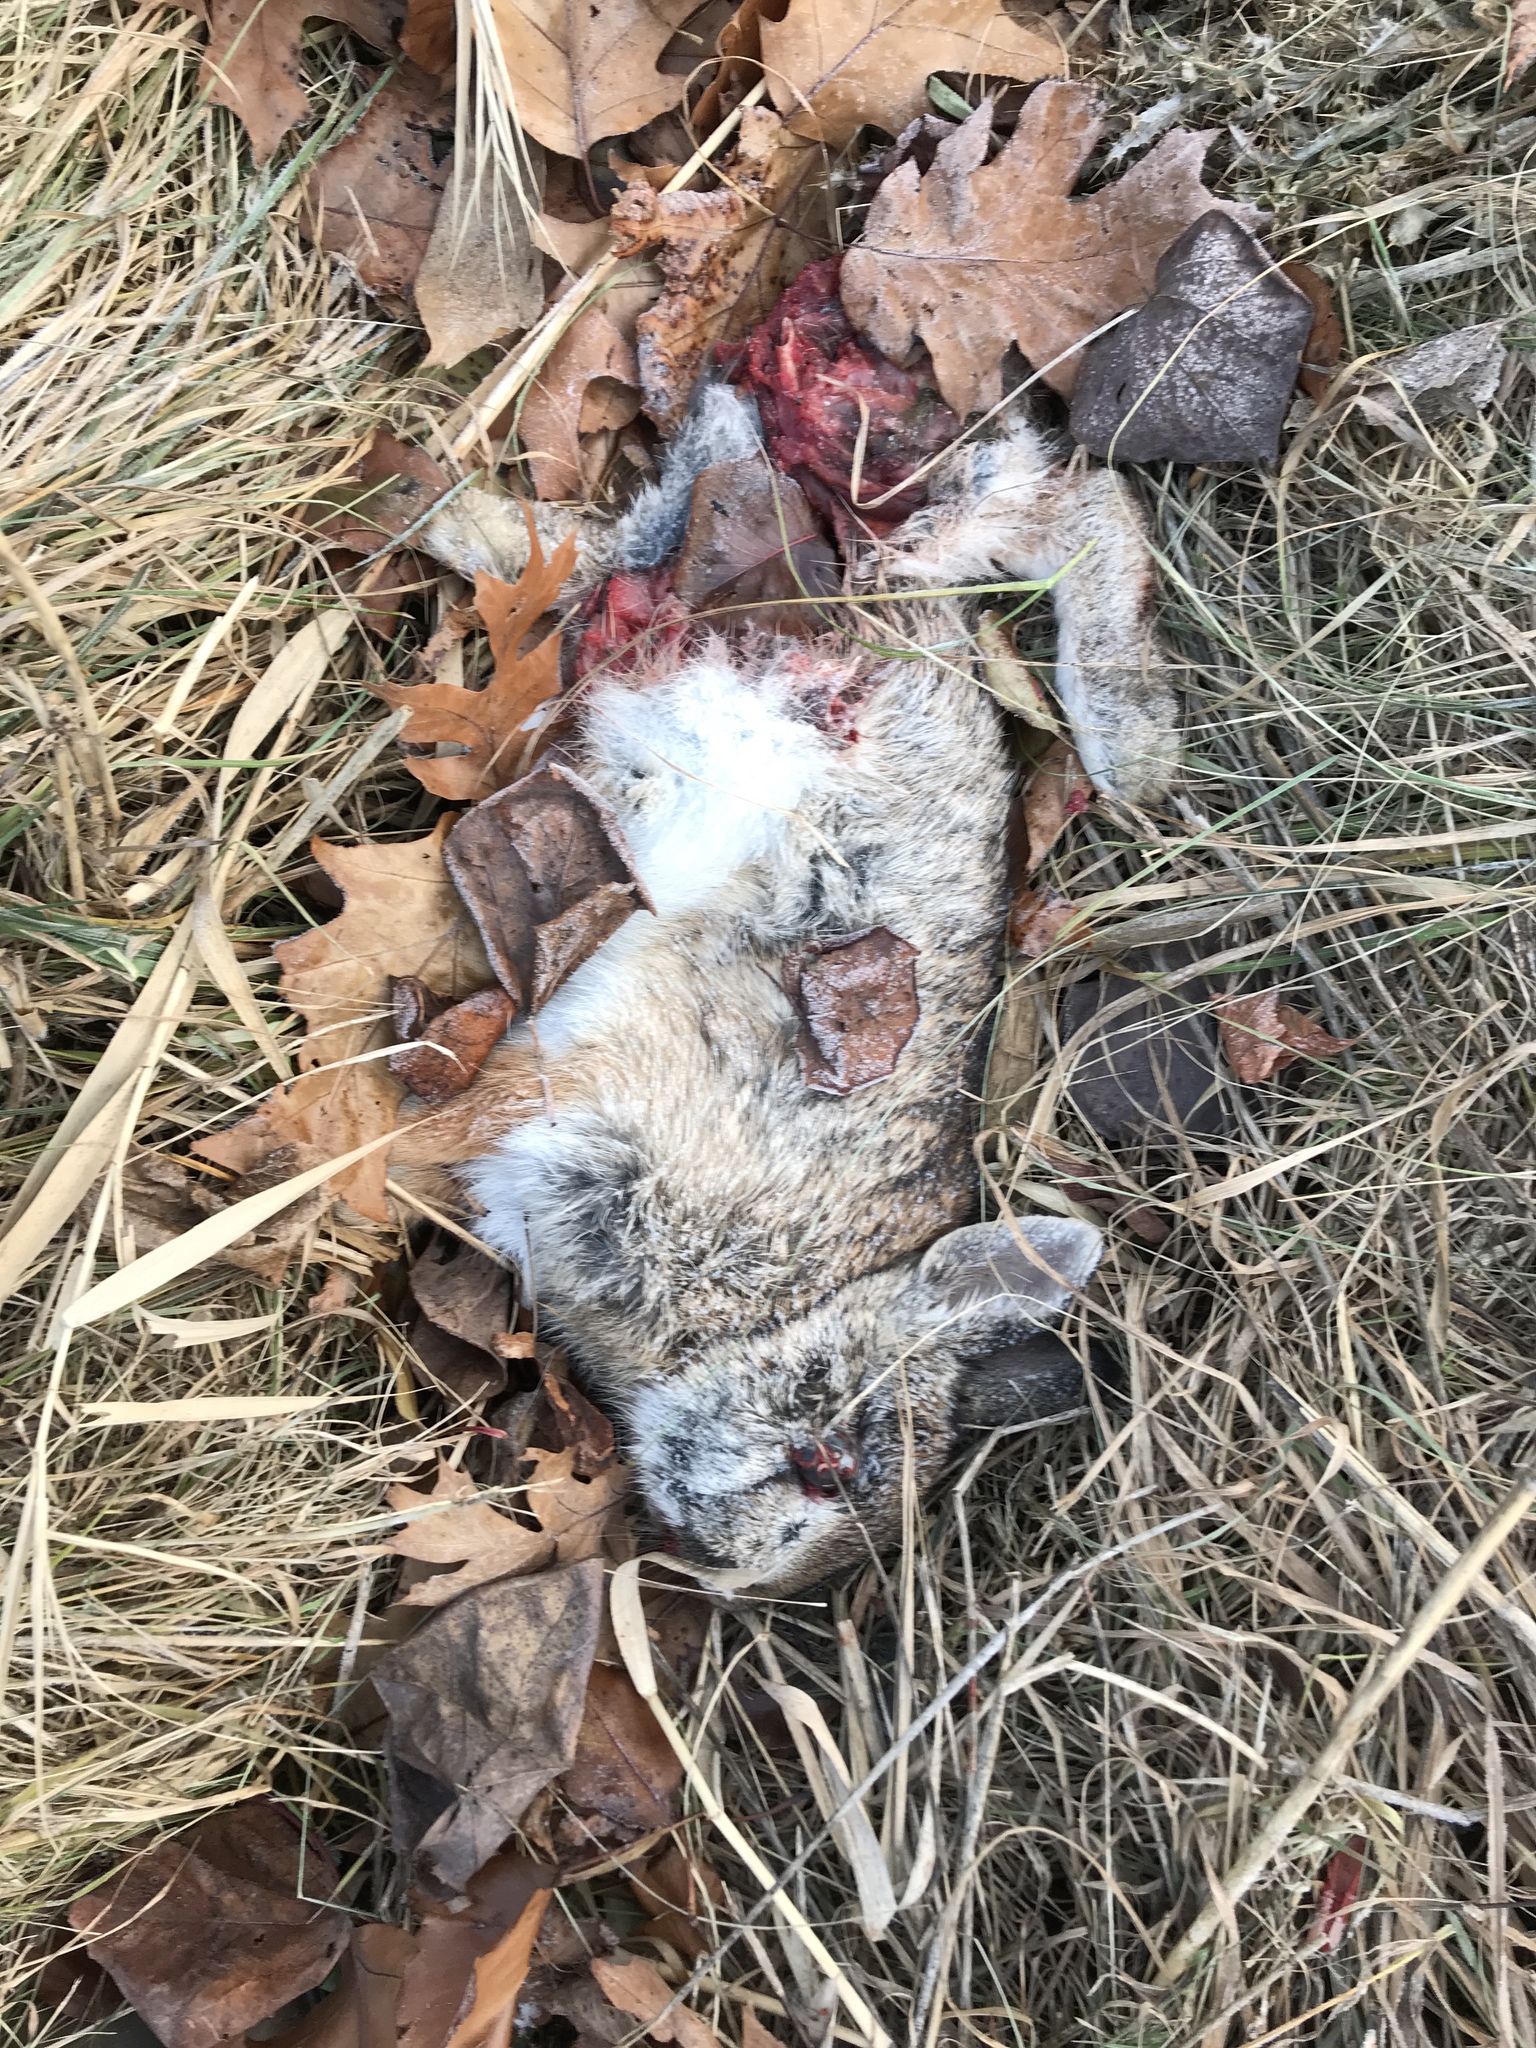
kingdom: Animalia
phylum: Chordata
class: Mammalia
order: Lagomorpha
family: Leporidae
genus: Sylvilagus
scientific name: Sylvilagus floridanus
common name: Eastern cottontail
